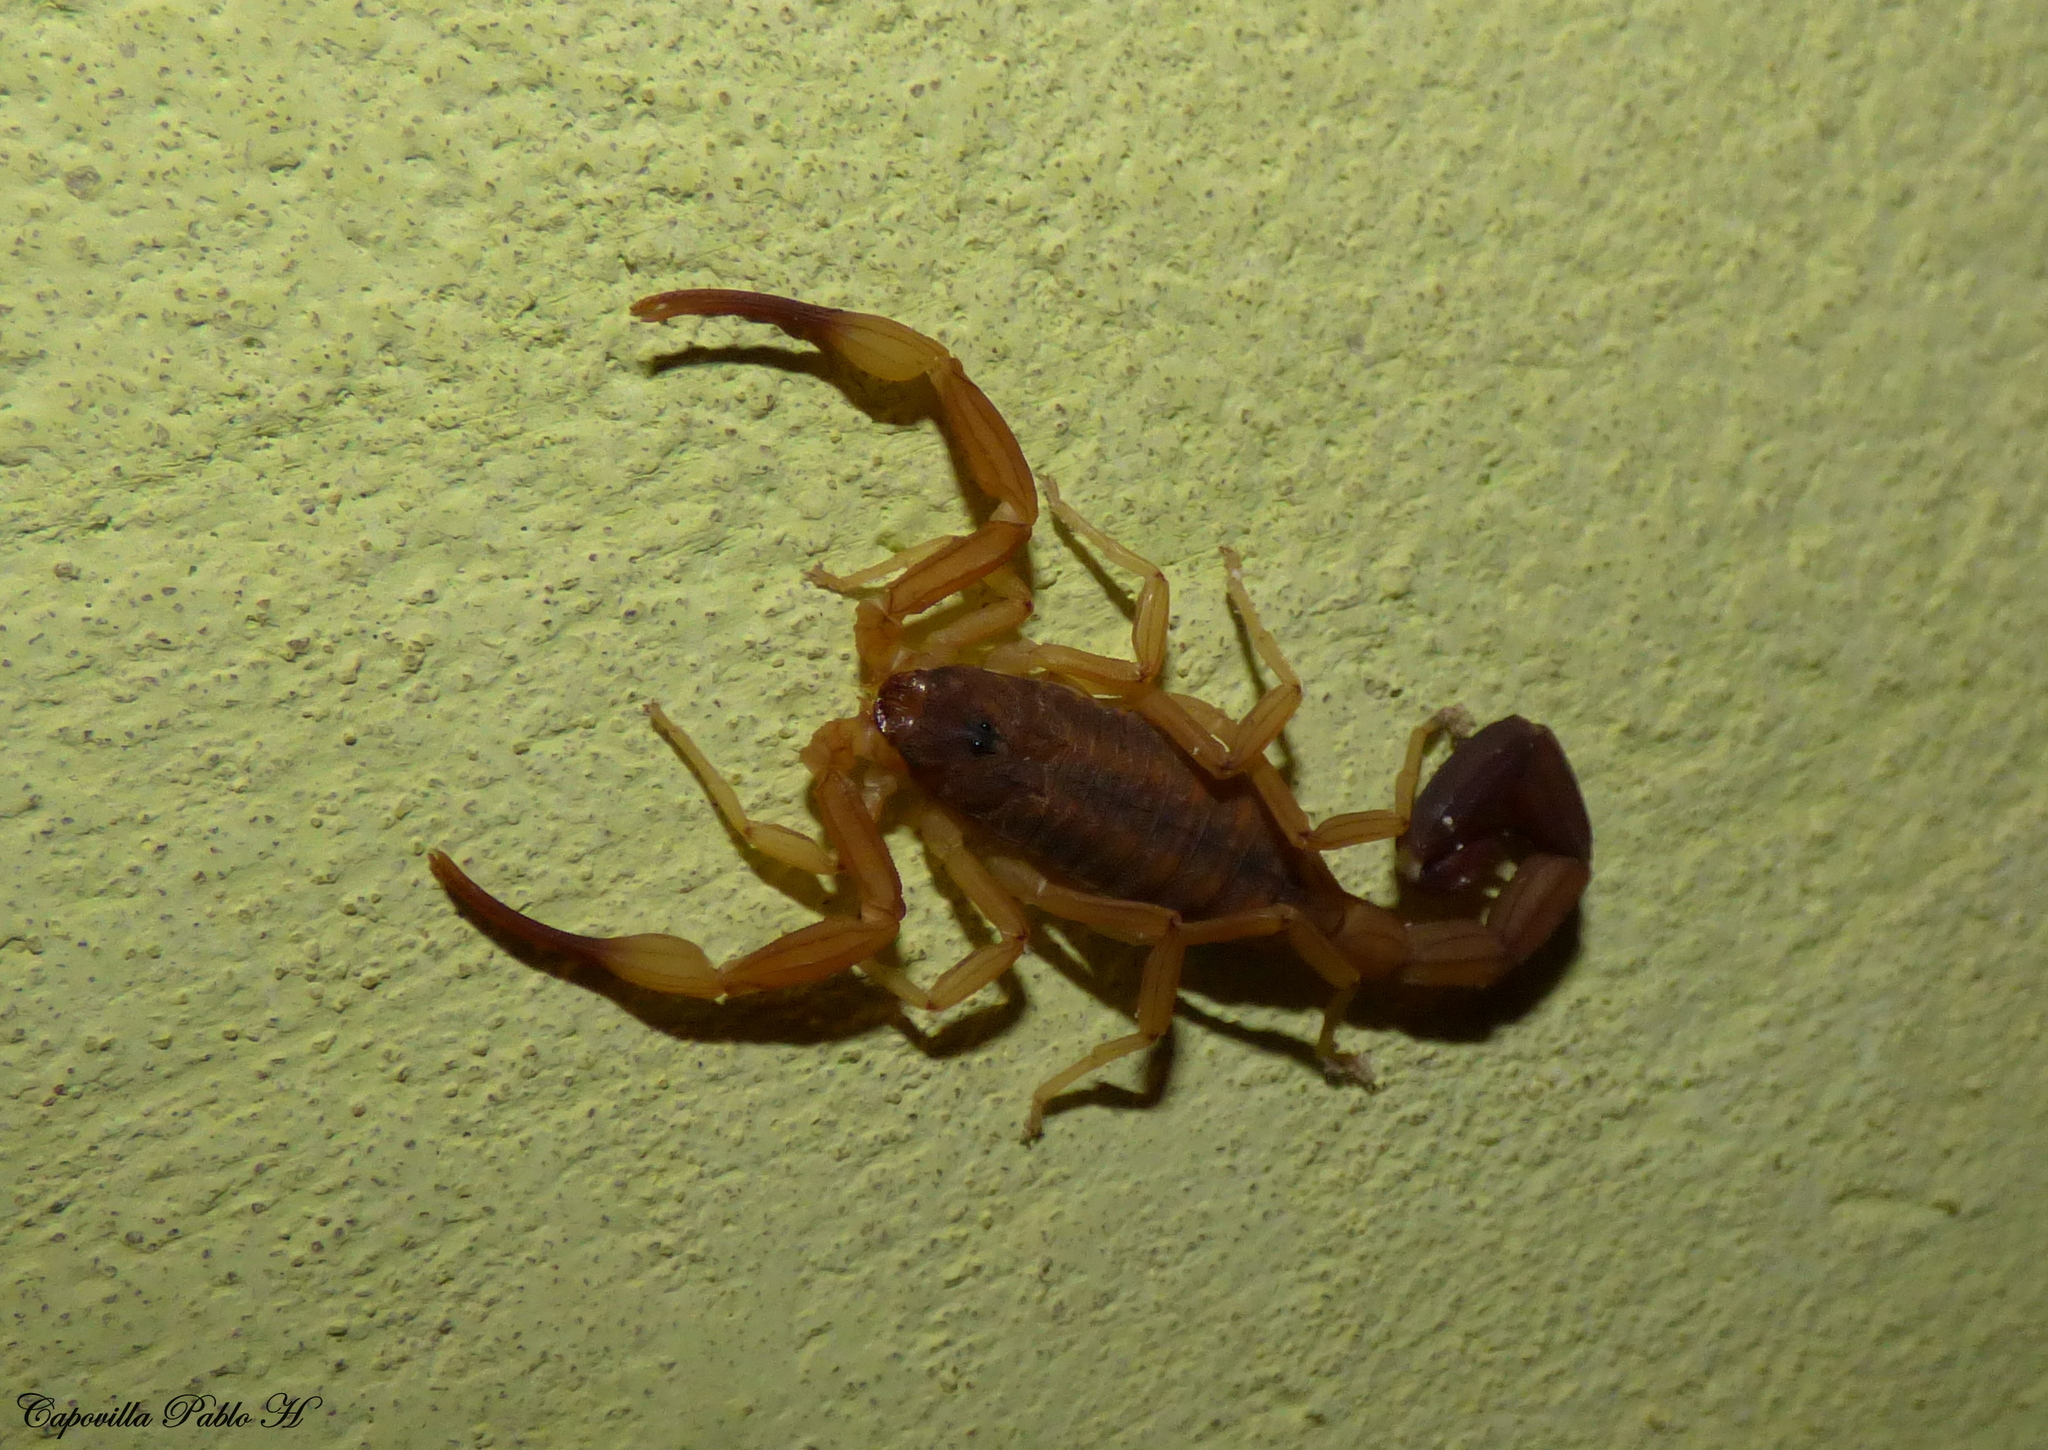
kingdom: Animalia
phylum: Arthropoda
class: Arachnida
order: Scorpiones
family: Buthidae
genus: Tityus
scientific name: Tityus carrilloi
